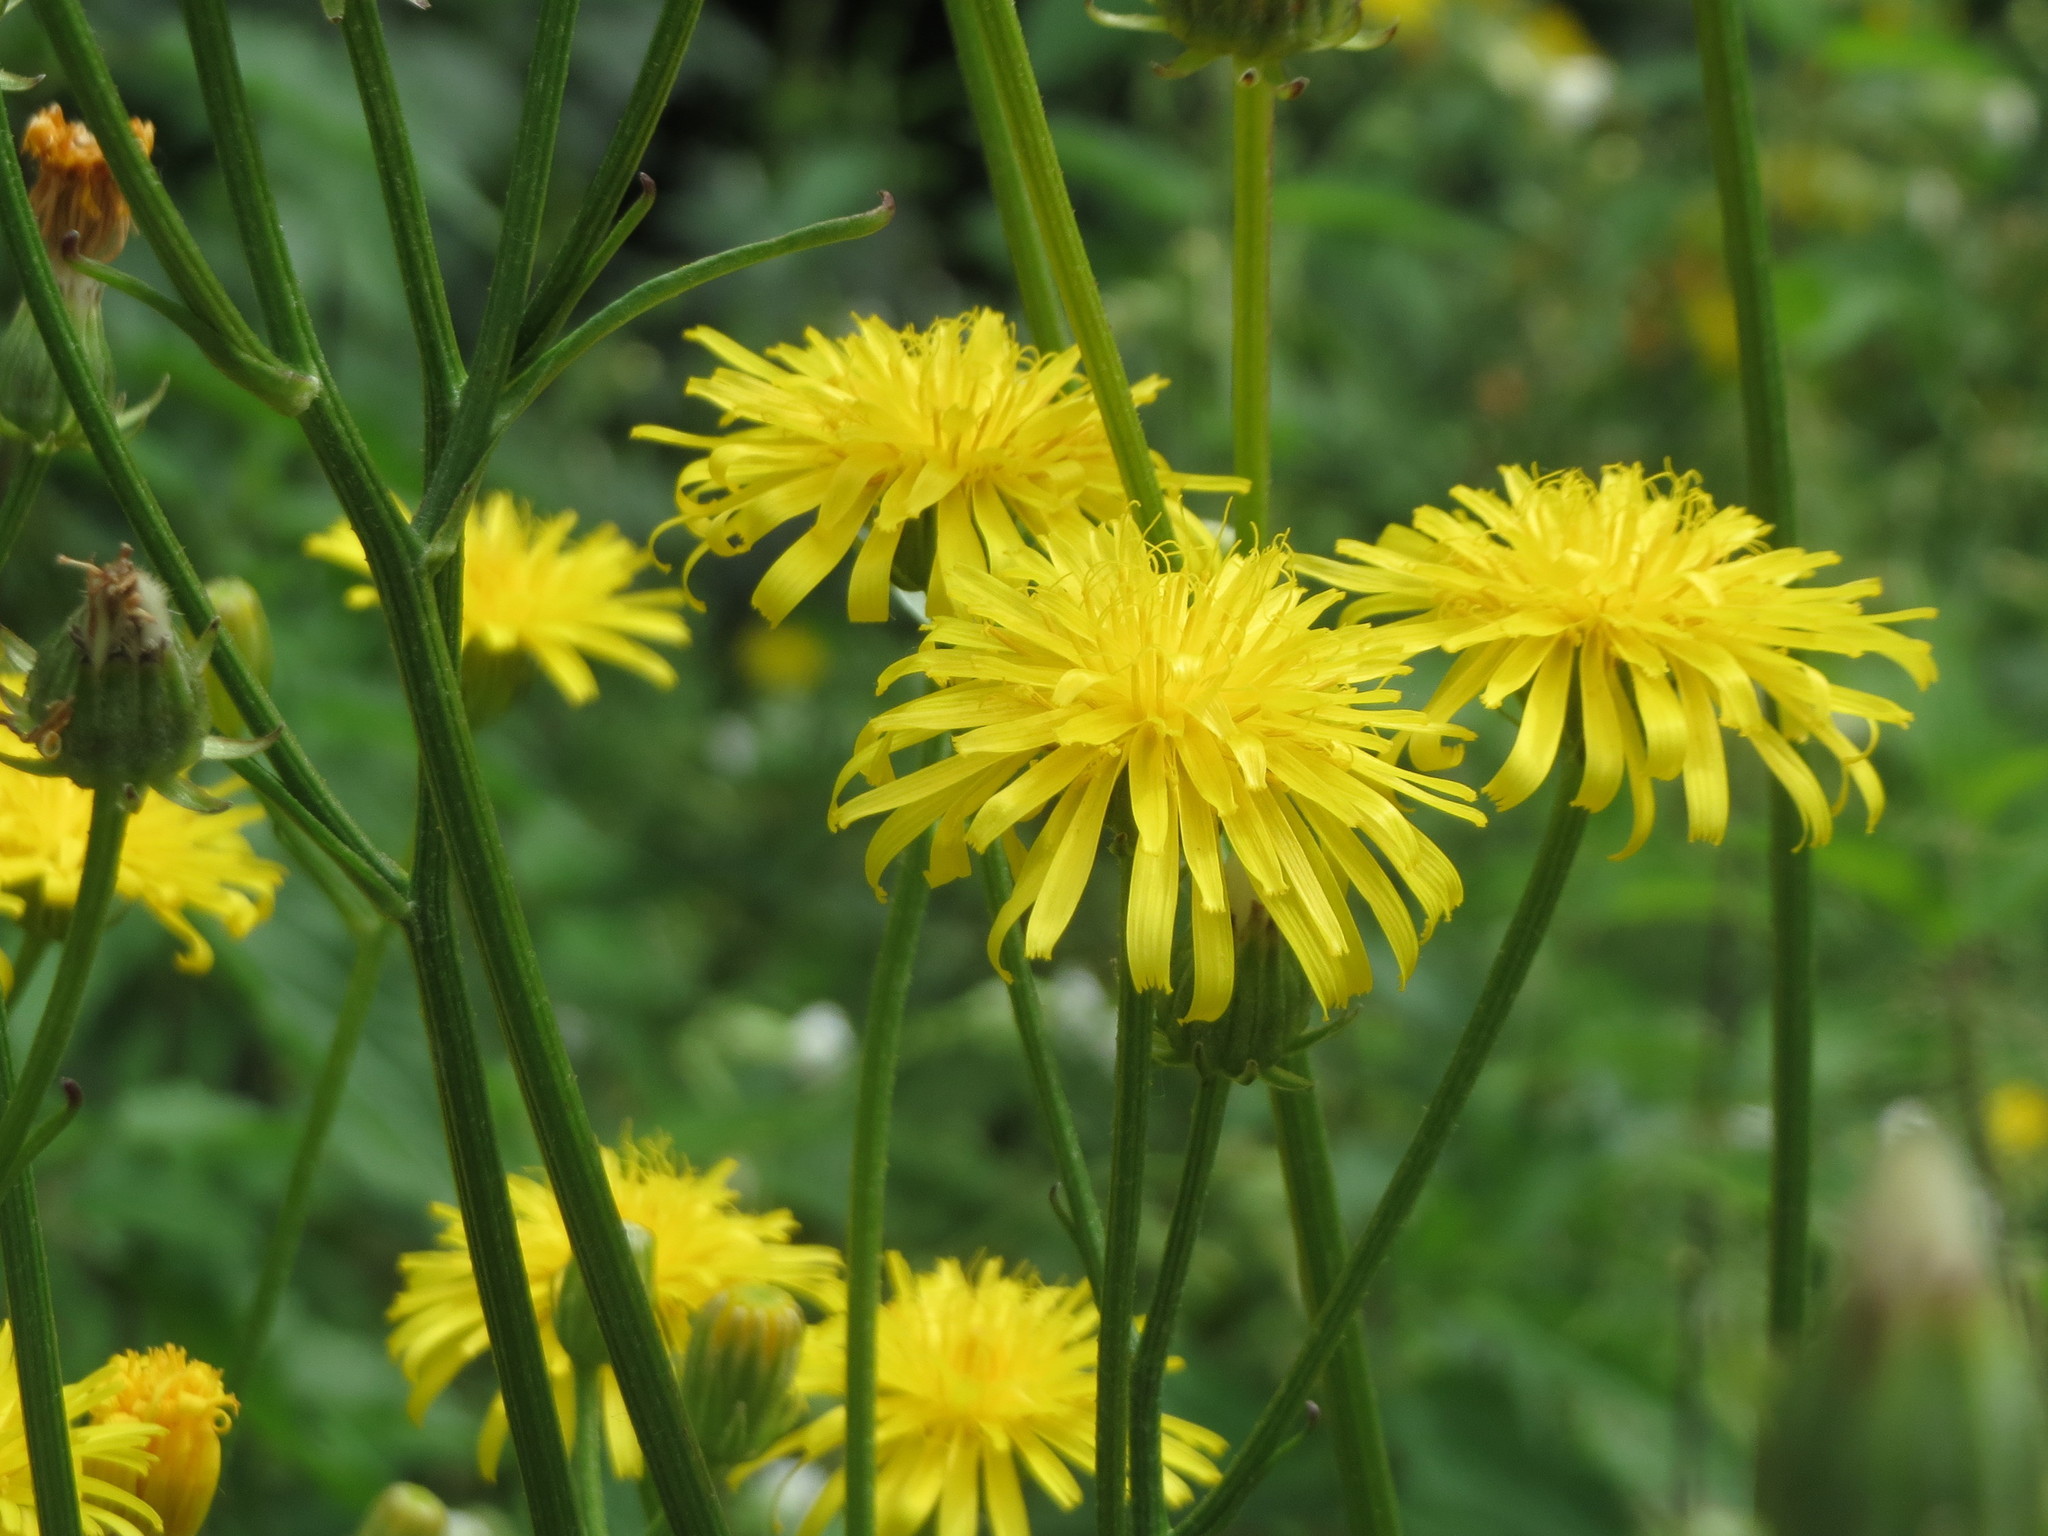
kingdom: Plantae
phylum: Tracheophyta
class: Magnoliopsida
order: Asterales
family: Asteraceae
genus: Crepis
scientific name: Crepis biennis
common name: Rough hawk's-beard
